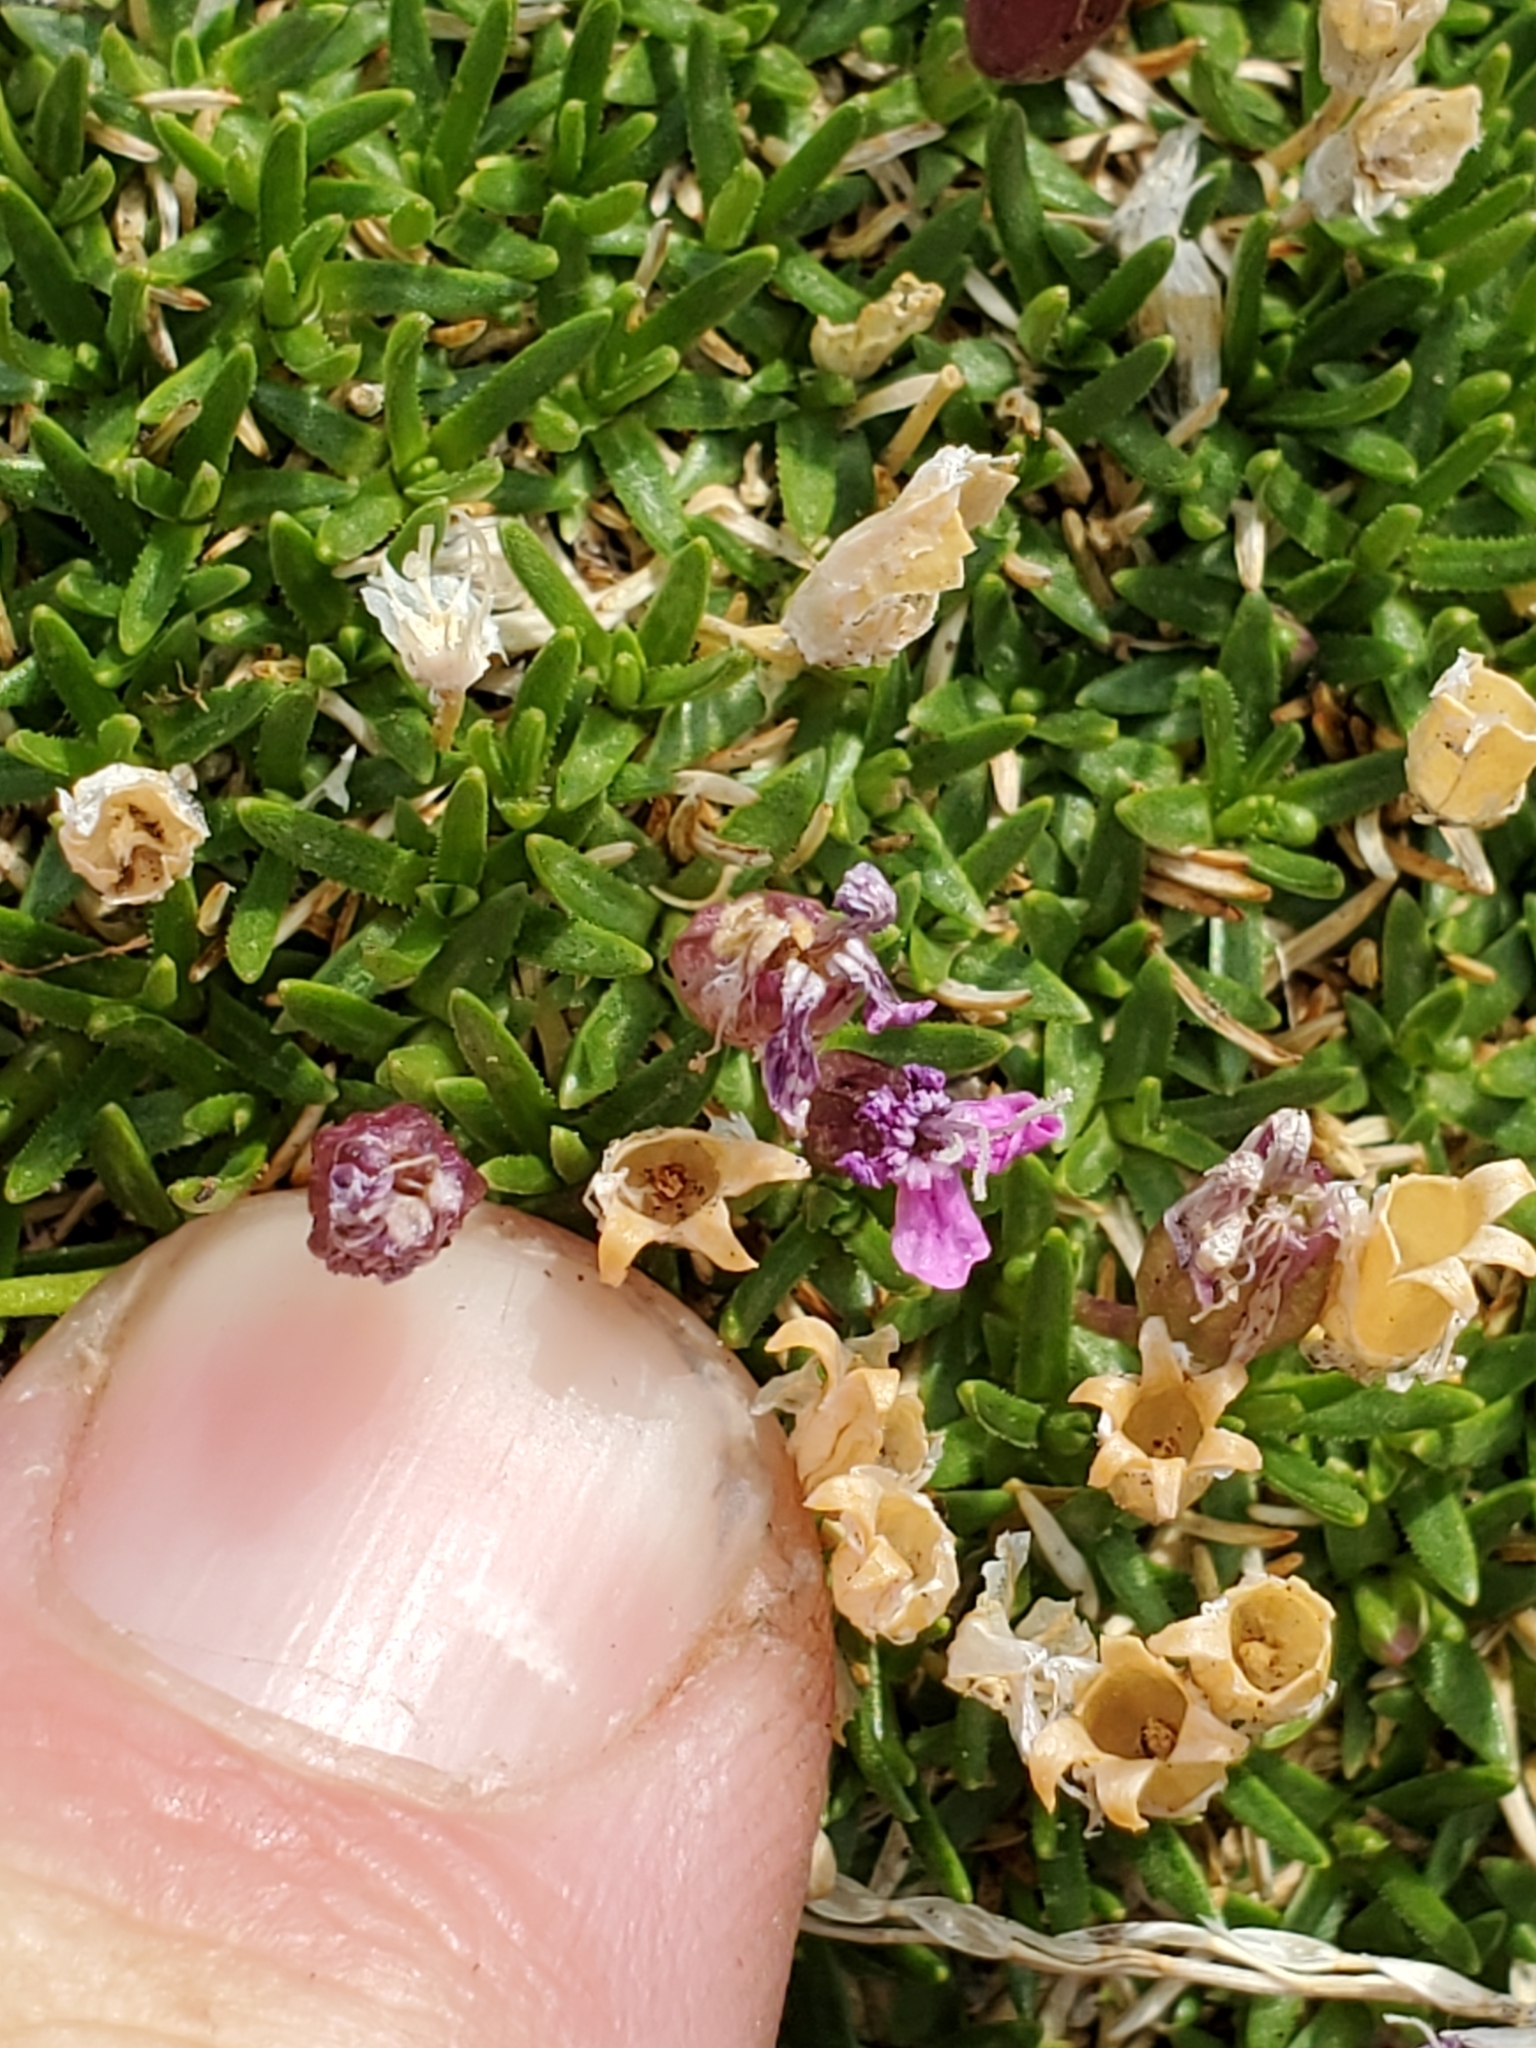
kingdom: Plantae
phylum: Tracheophyta
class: Magnoliopsida
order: Caryophyllales
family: Caryophyllaceae
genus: Silene
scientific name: Silene acaulis
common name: Moss campion
